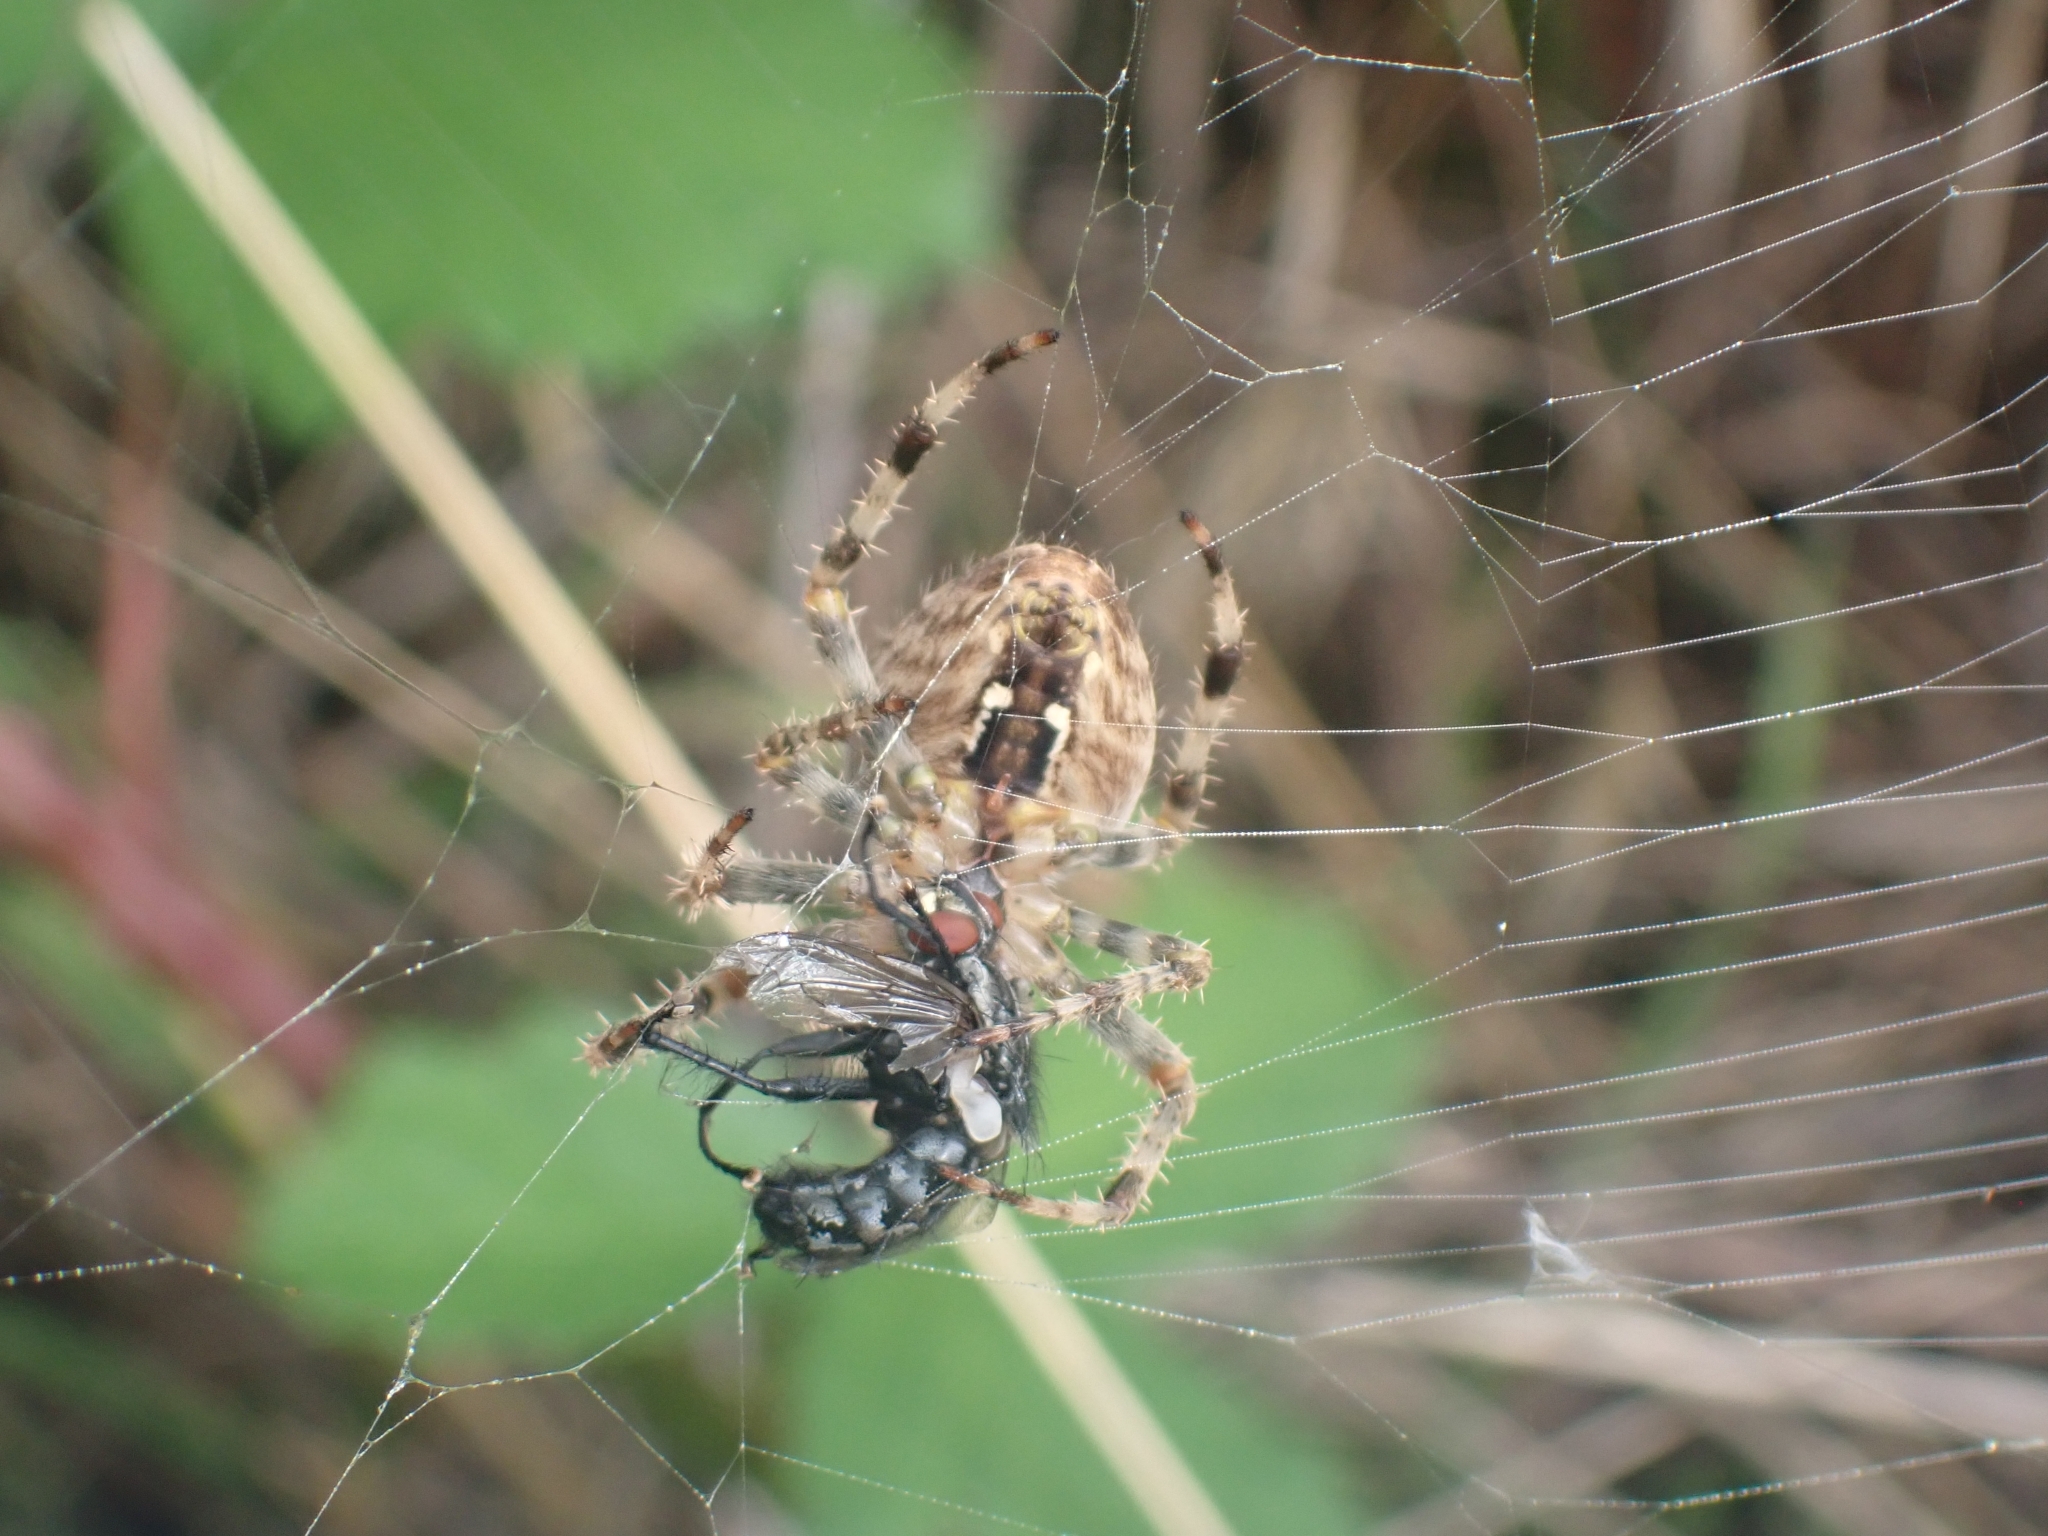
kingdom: Animalia
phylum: Arthropoda
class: Arachnida
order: Araneae
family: Araneidae
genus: Araneus
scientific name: Araneus diadematus
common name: Cross orbweaver
